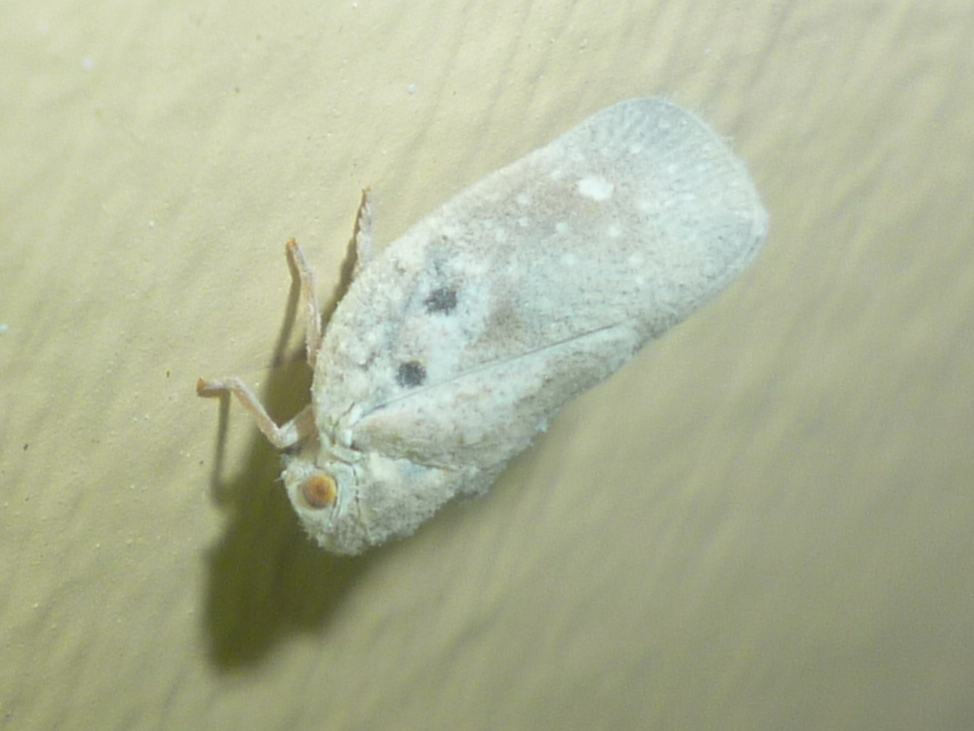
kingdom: Animalia
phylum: Arthropoda
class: Insecta
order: Hemiptera
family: Flatidae
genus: Metcalfa
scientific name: Metcalfa pruinosa
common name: Citrus flatid planthopper
